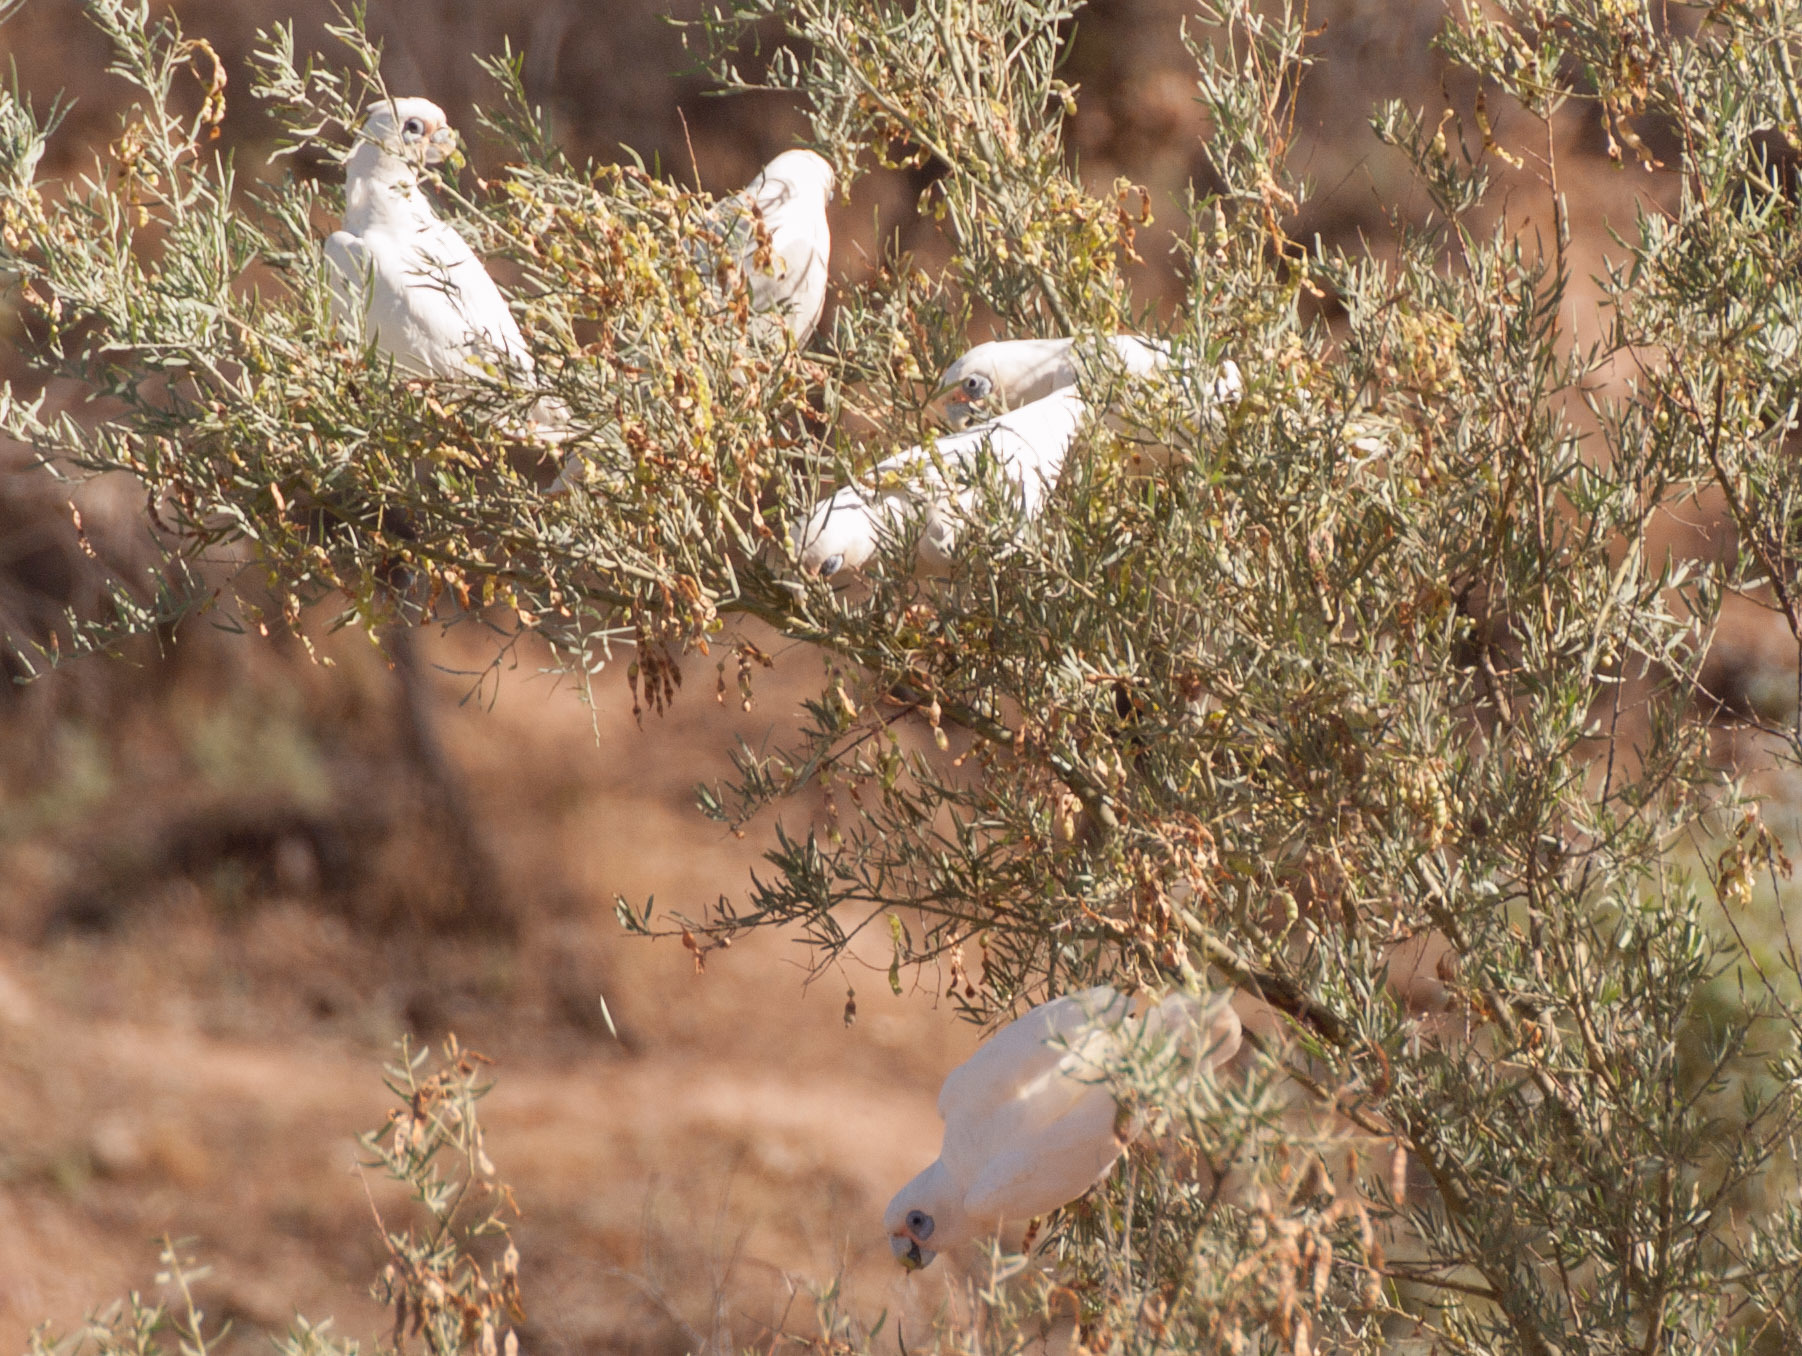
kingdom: Animalia
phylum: Chordata
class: Aves
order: Psittaciformes
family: Psittacidae
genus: Cacatua
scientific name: Cacatua sanguinea
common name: Little corella
